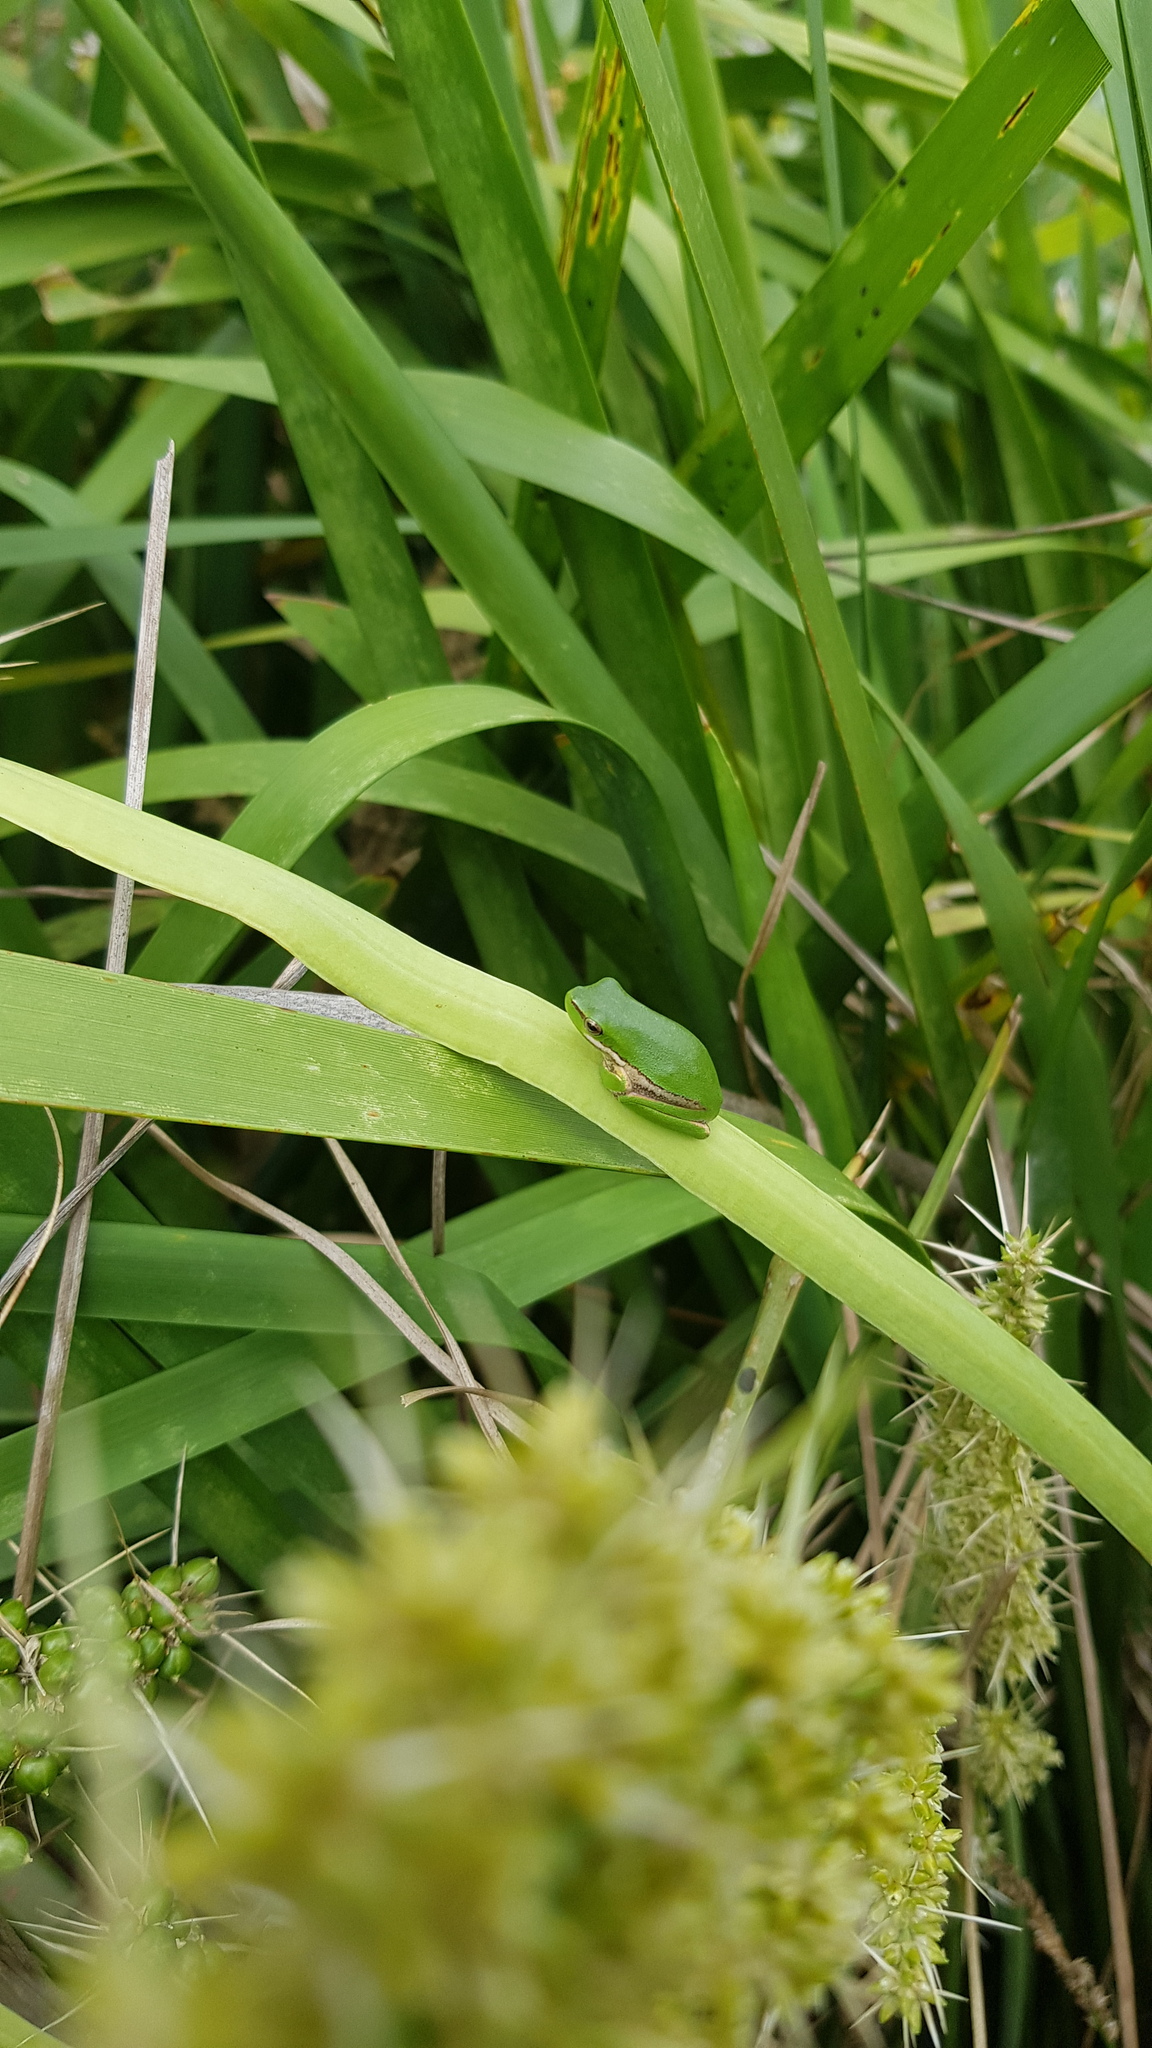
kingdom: Animalia
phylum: Chordata
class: Amphibia
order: Anura
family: Pelodryadidae
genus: Litoria
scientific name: Litoria fallax
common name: Eastern dwarf treefrog
